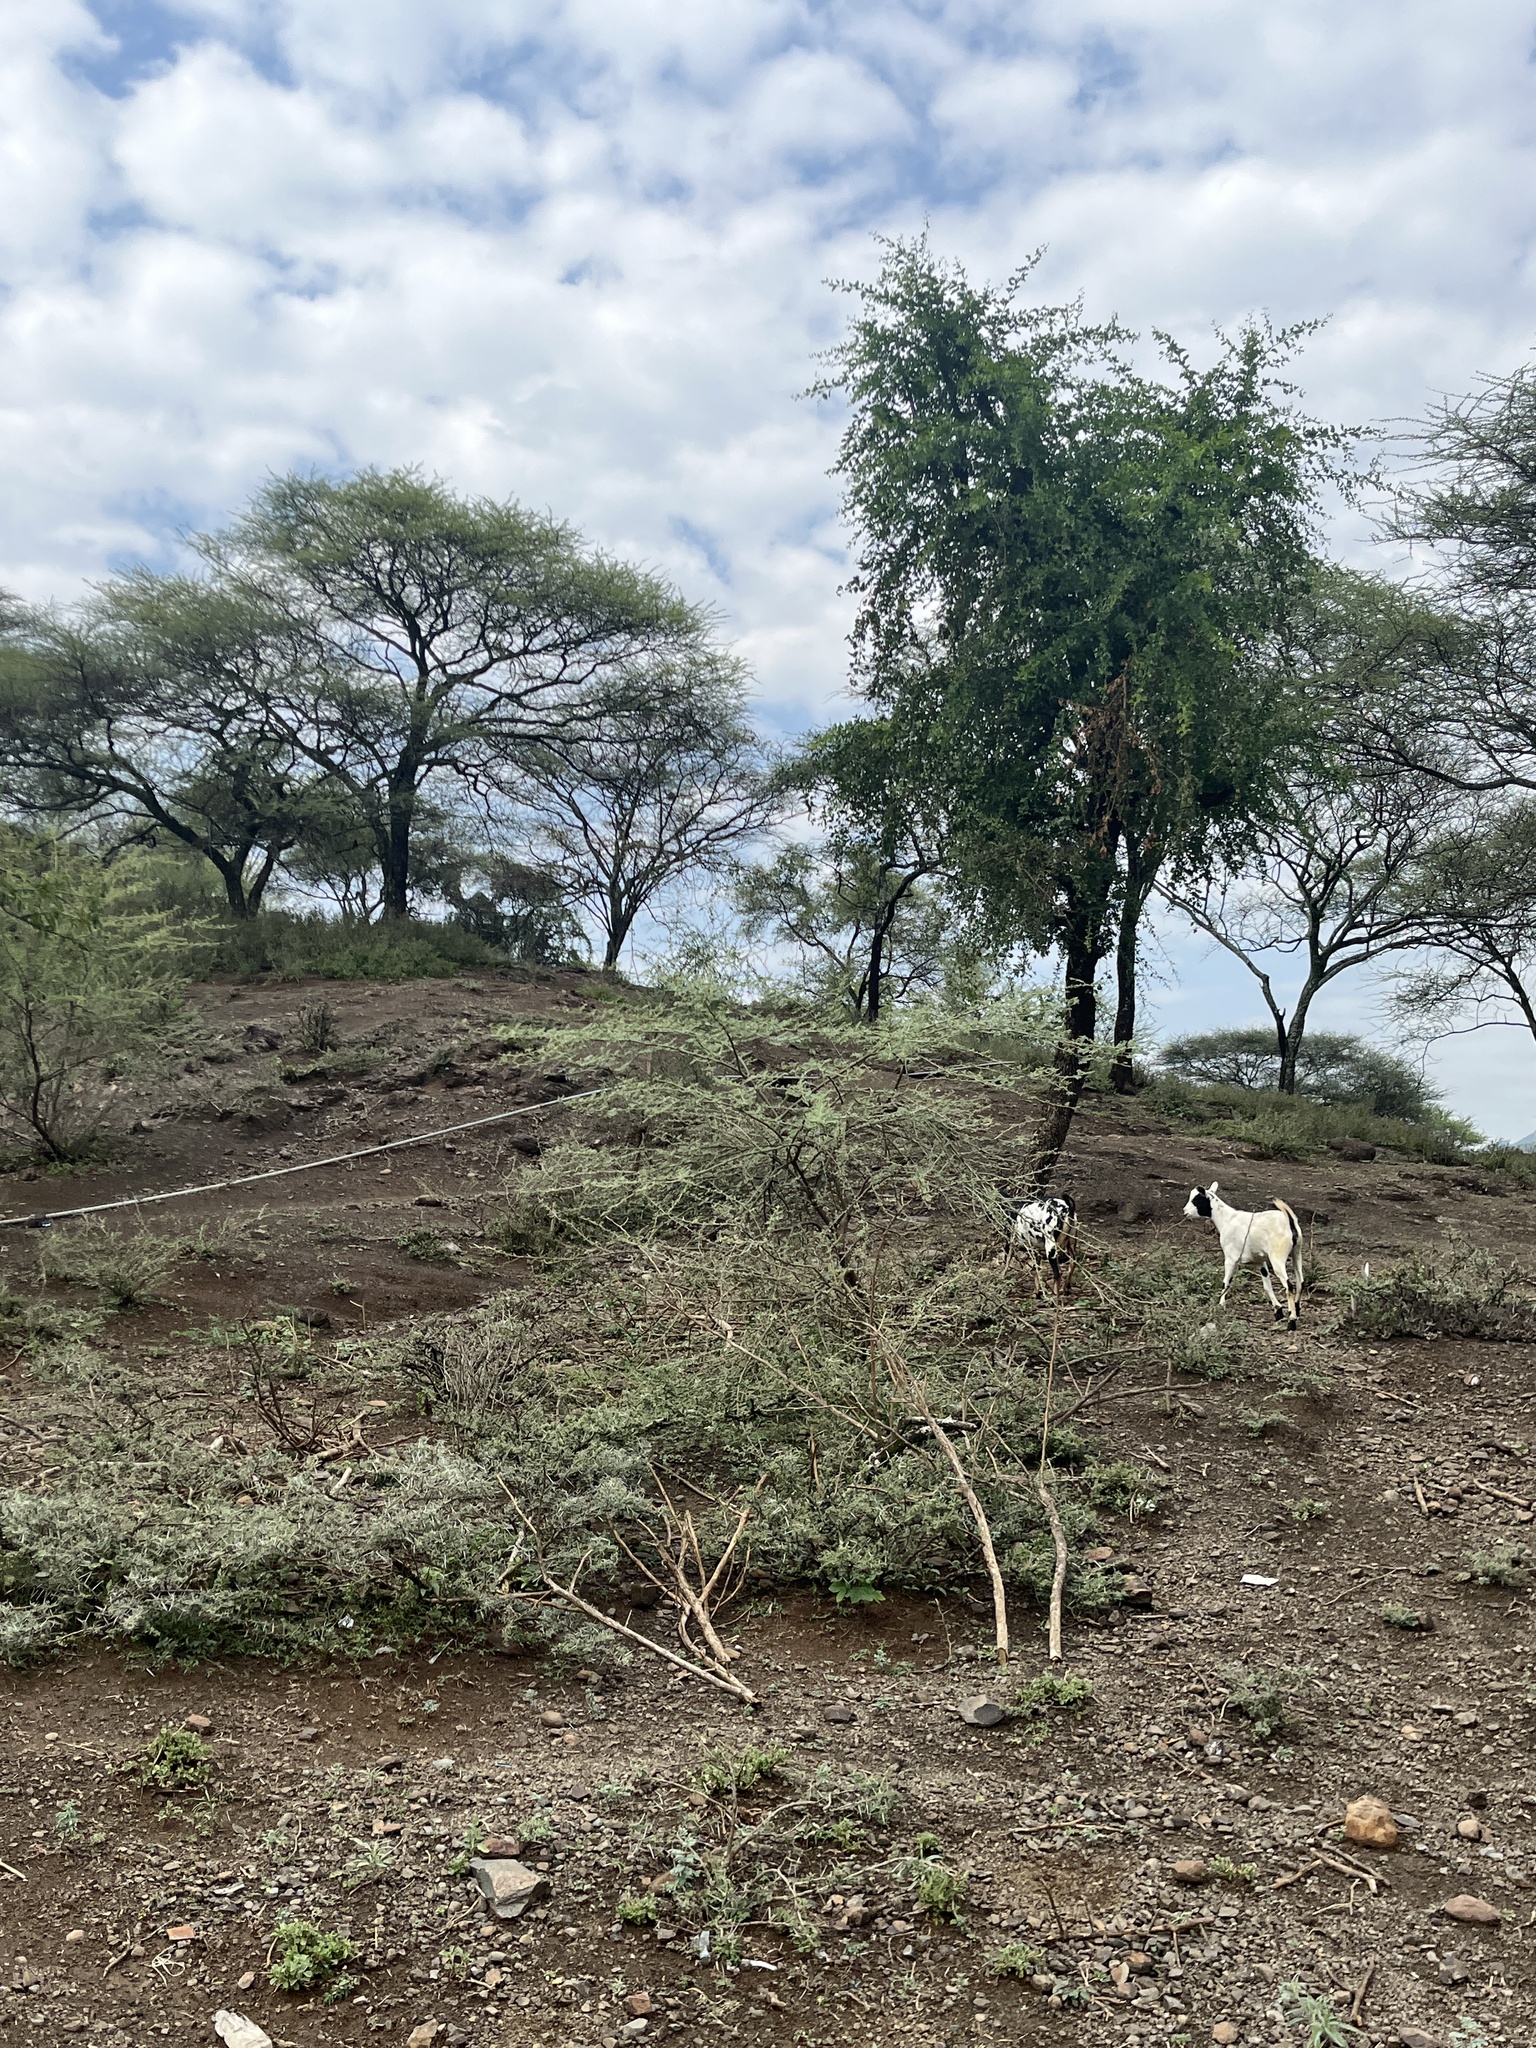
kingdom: Animalia
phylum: Chordata
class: Mammalia
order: Artiodactyla
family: Bovidae
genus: Capra
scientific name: Capra hircus
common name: Domestic goat
